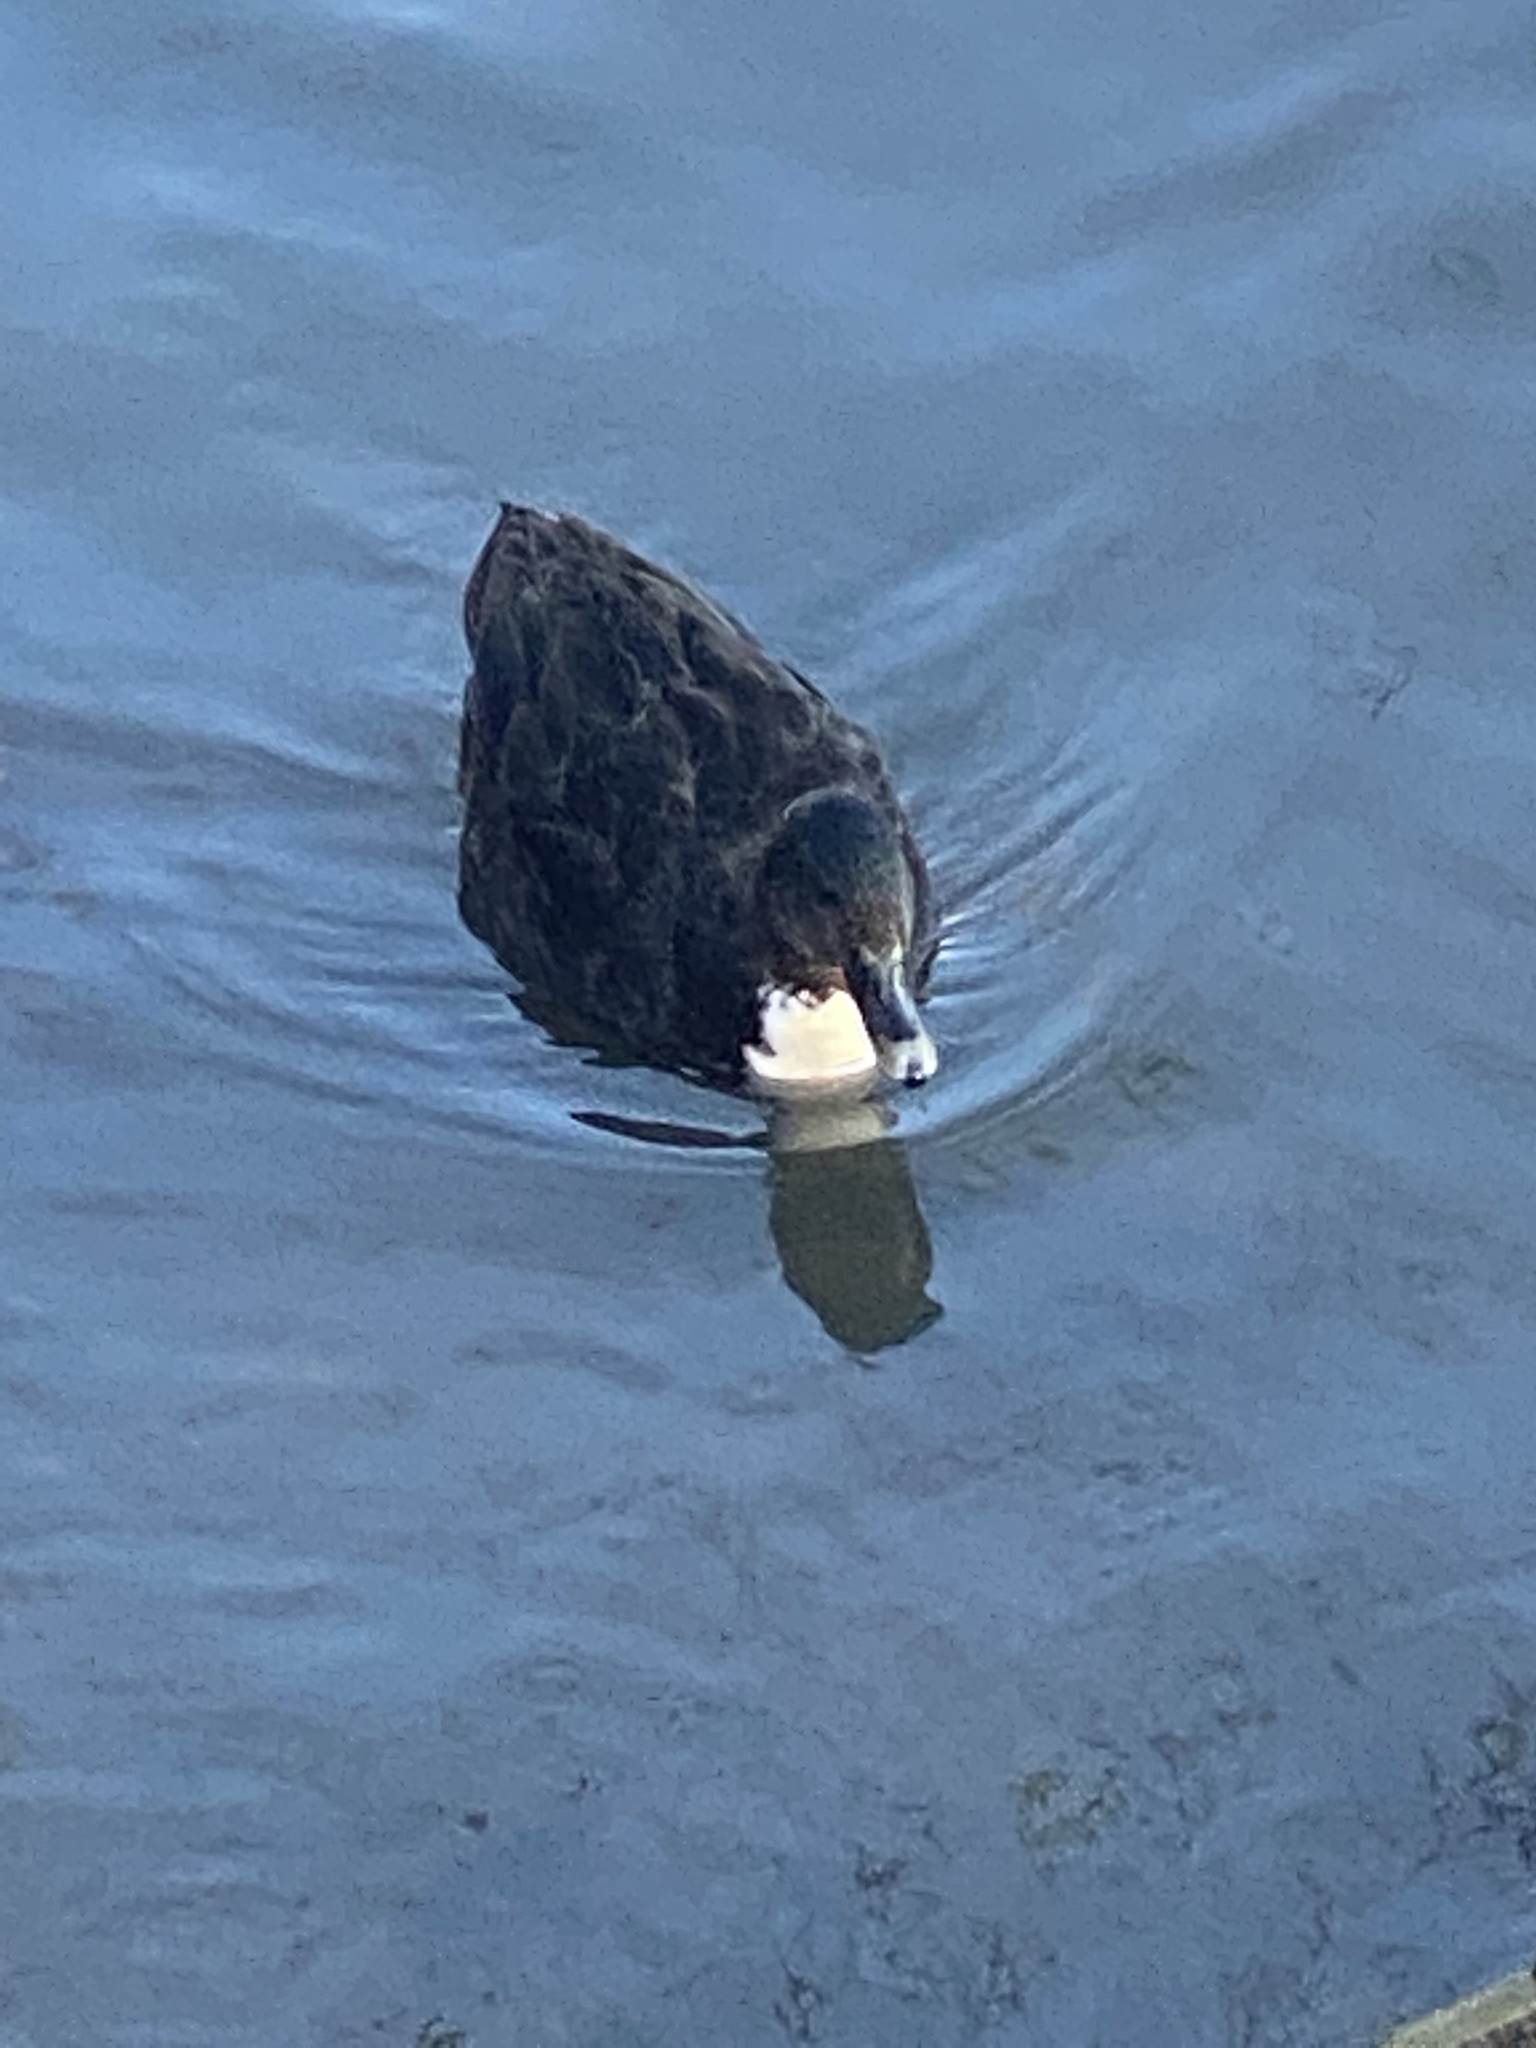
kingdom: Animalia
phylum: Chordata
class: Aves
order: Anseriformes
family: Anatidae
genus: Anas
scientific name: Anas platyrhynchos
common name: Mallard
